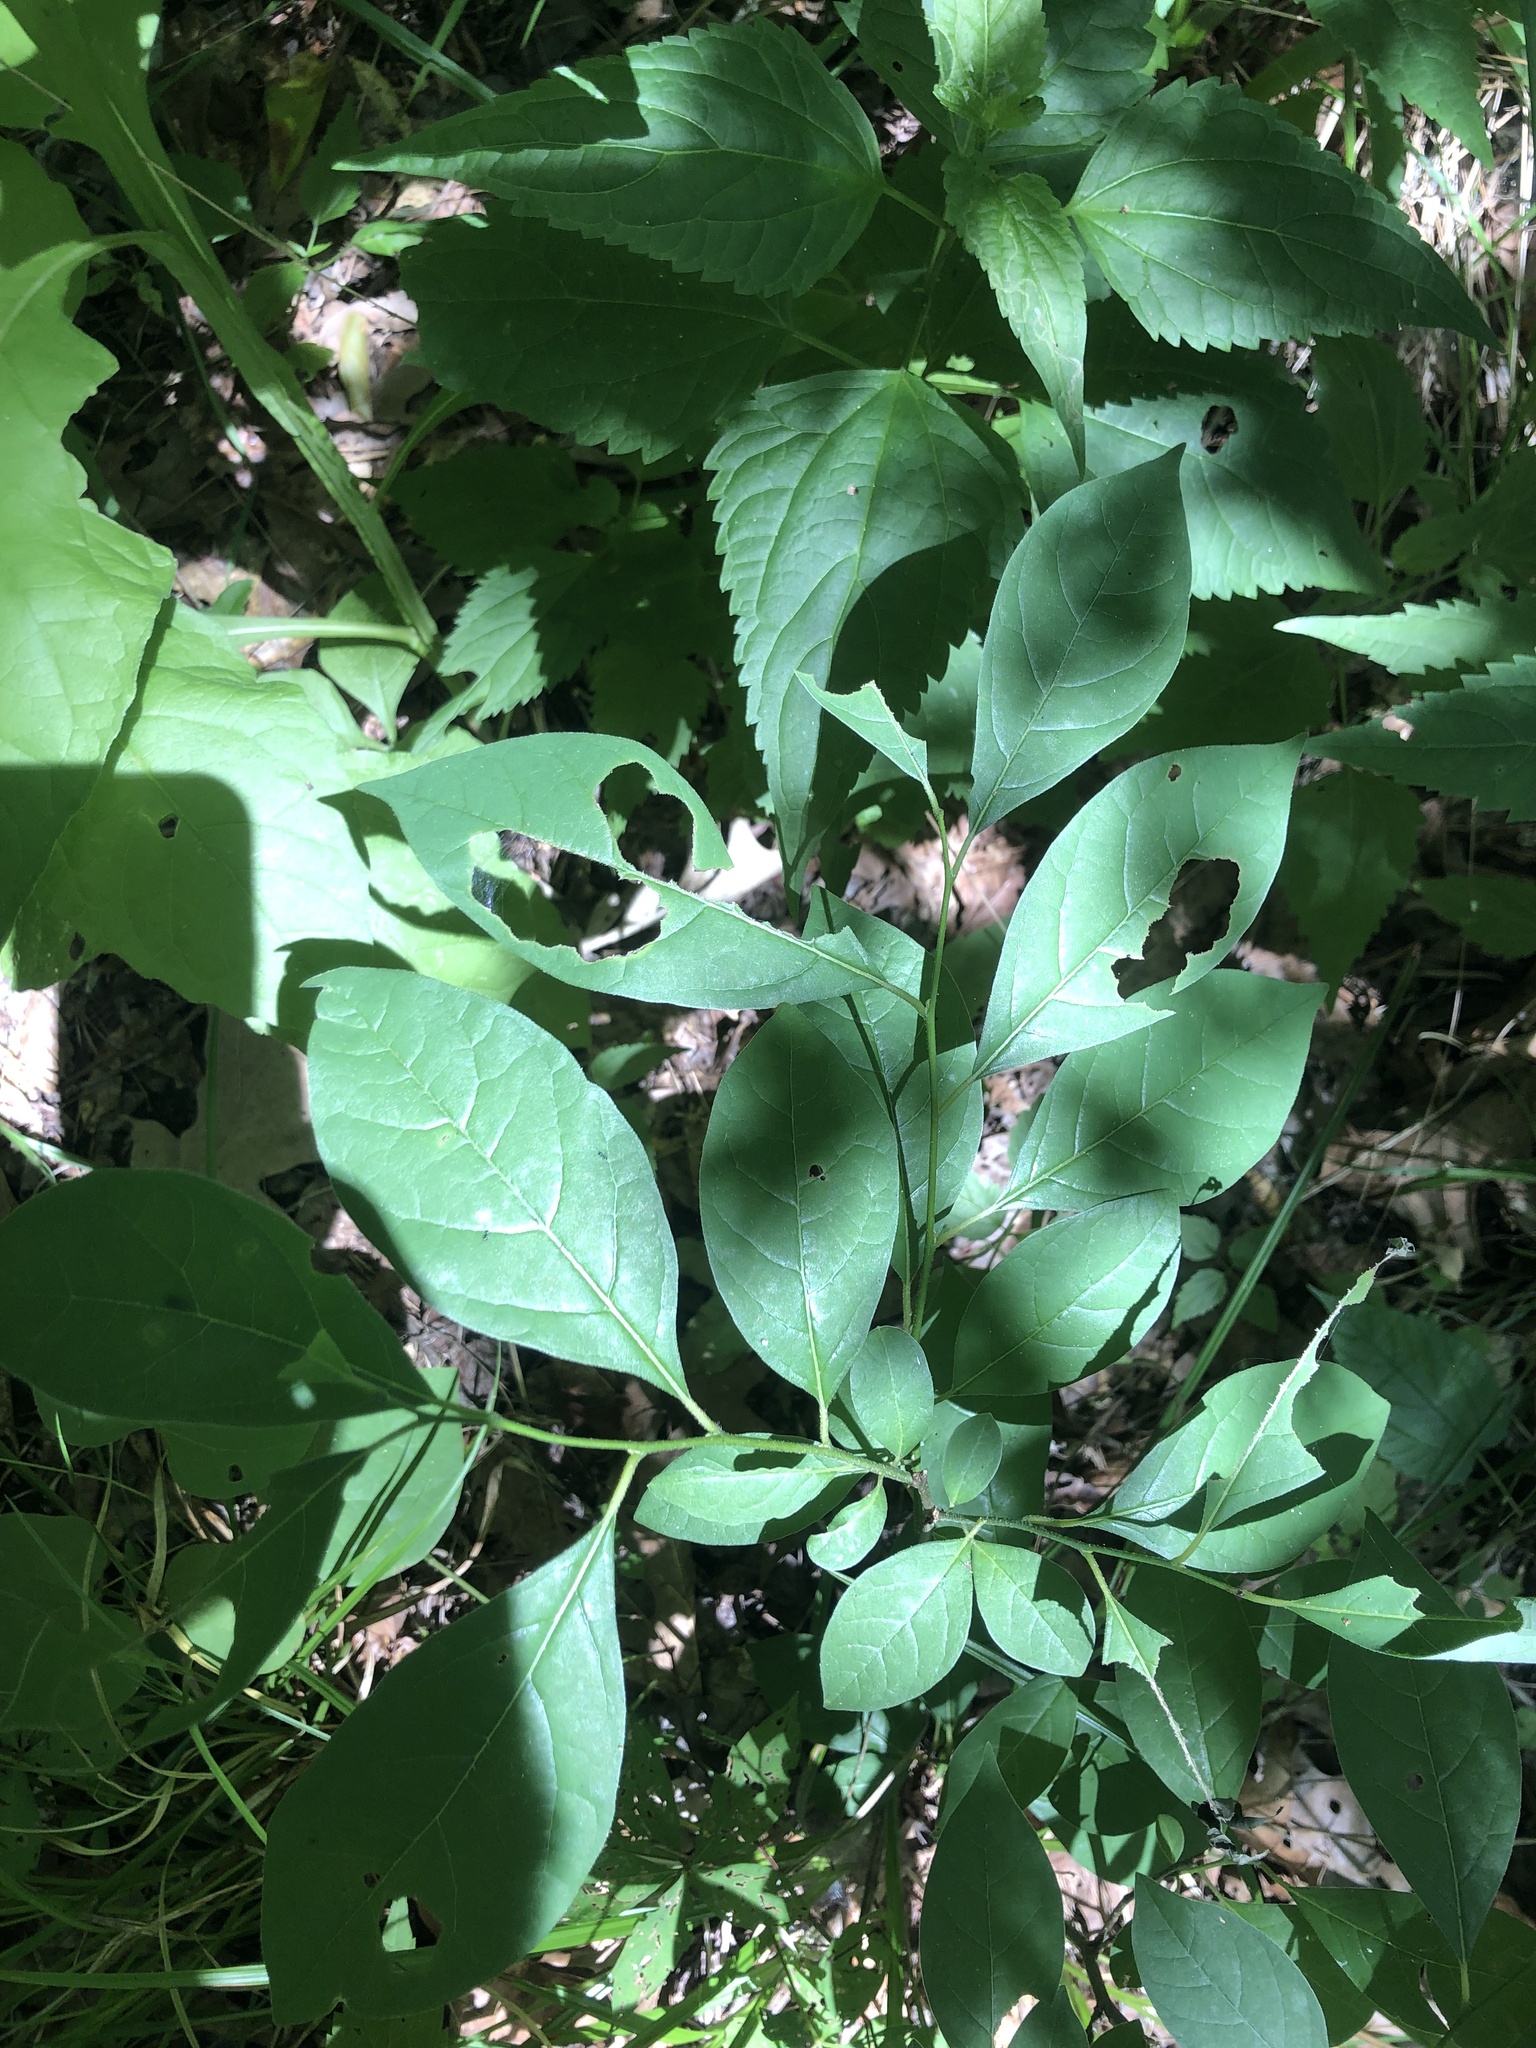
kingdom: Plantae
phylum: Tracheophyta
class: Magnoliopsida
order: Laurales
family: Lauraceae
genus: Lindera
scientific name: Lindera benzoin
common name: Spicebush
